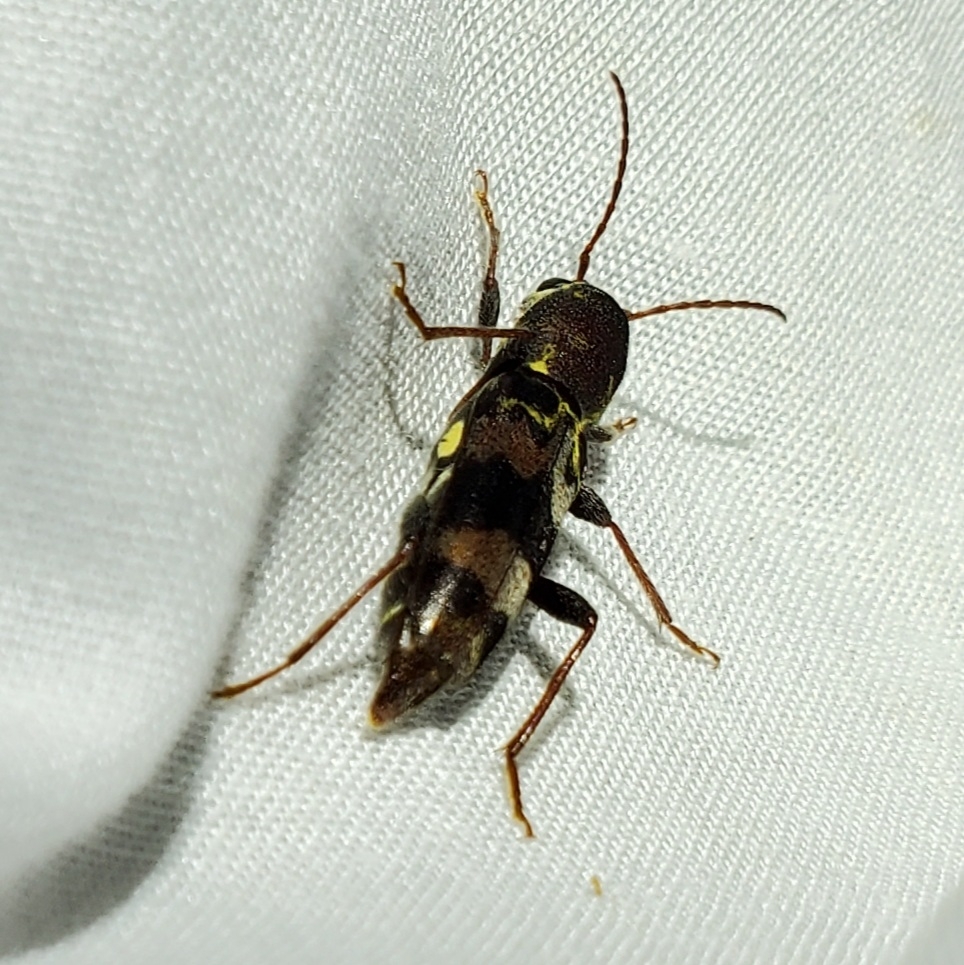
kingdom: Animalia
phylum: Arthropoda
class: Insecta
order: Coleoptera
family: Cerambycidae
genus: Xylotrechus
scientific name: Xylotrechus colonus
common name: Long-horned beetle
